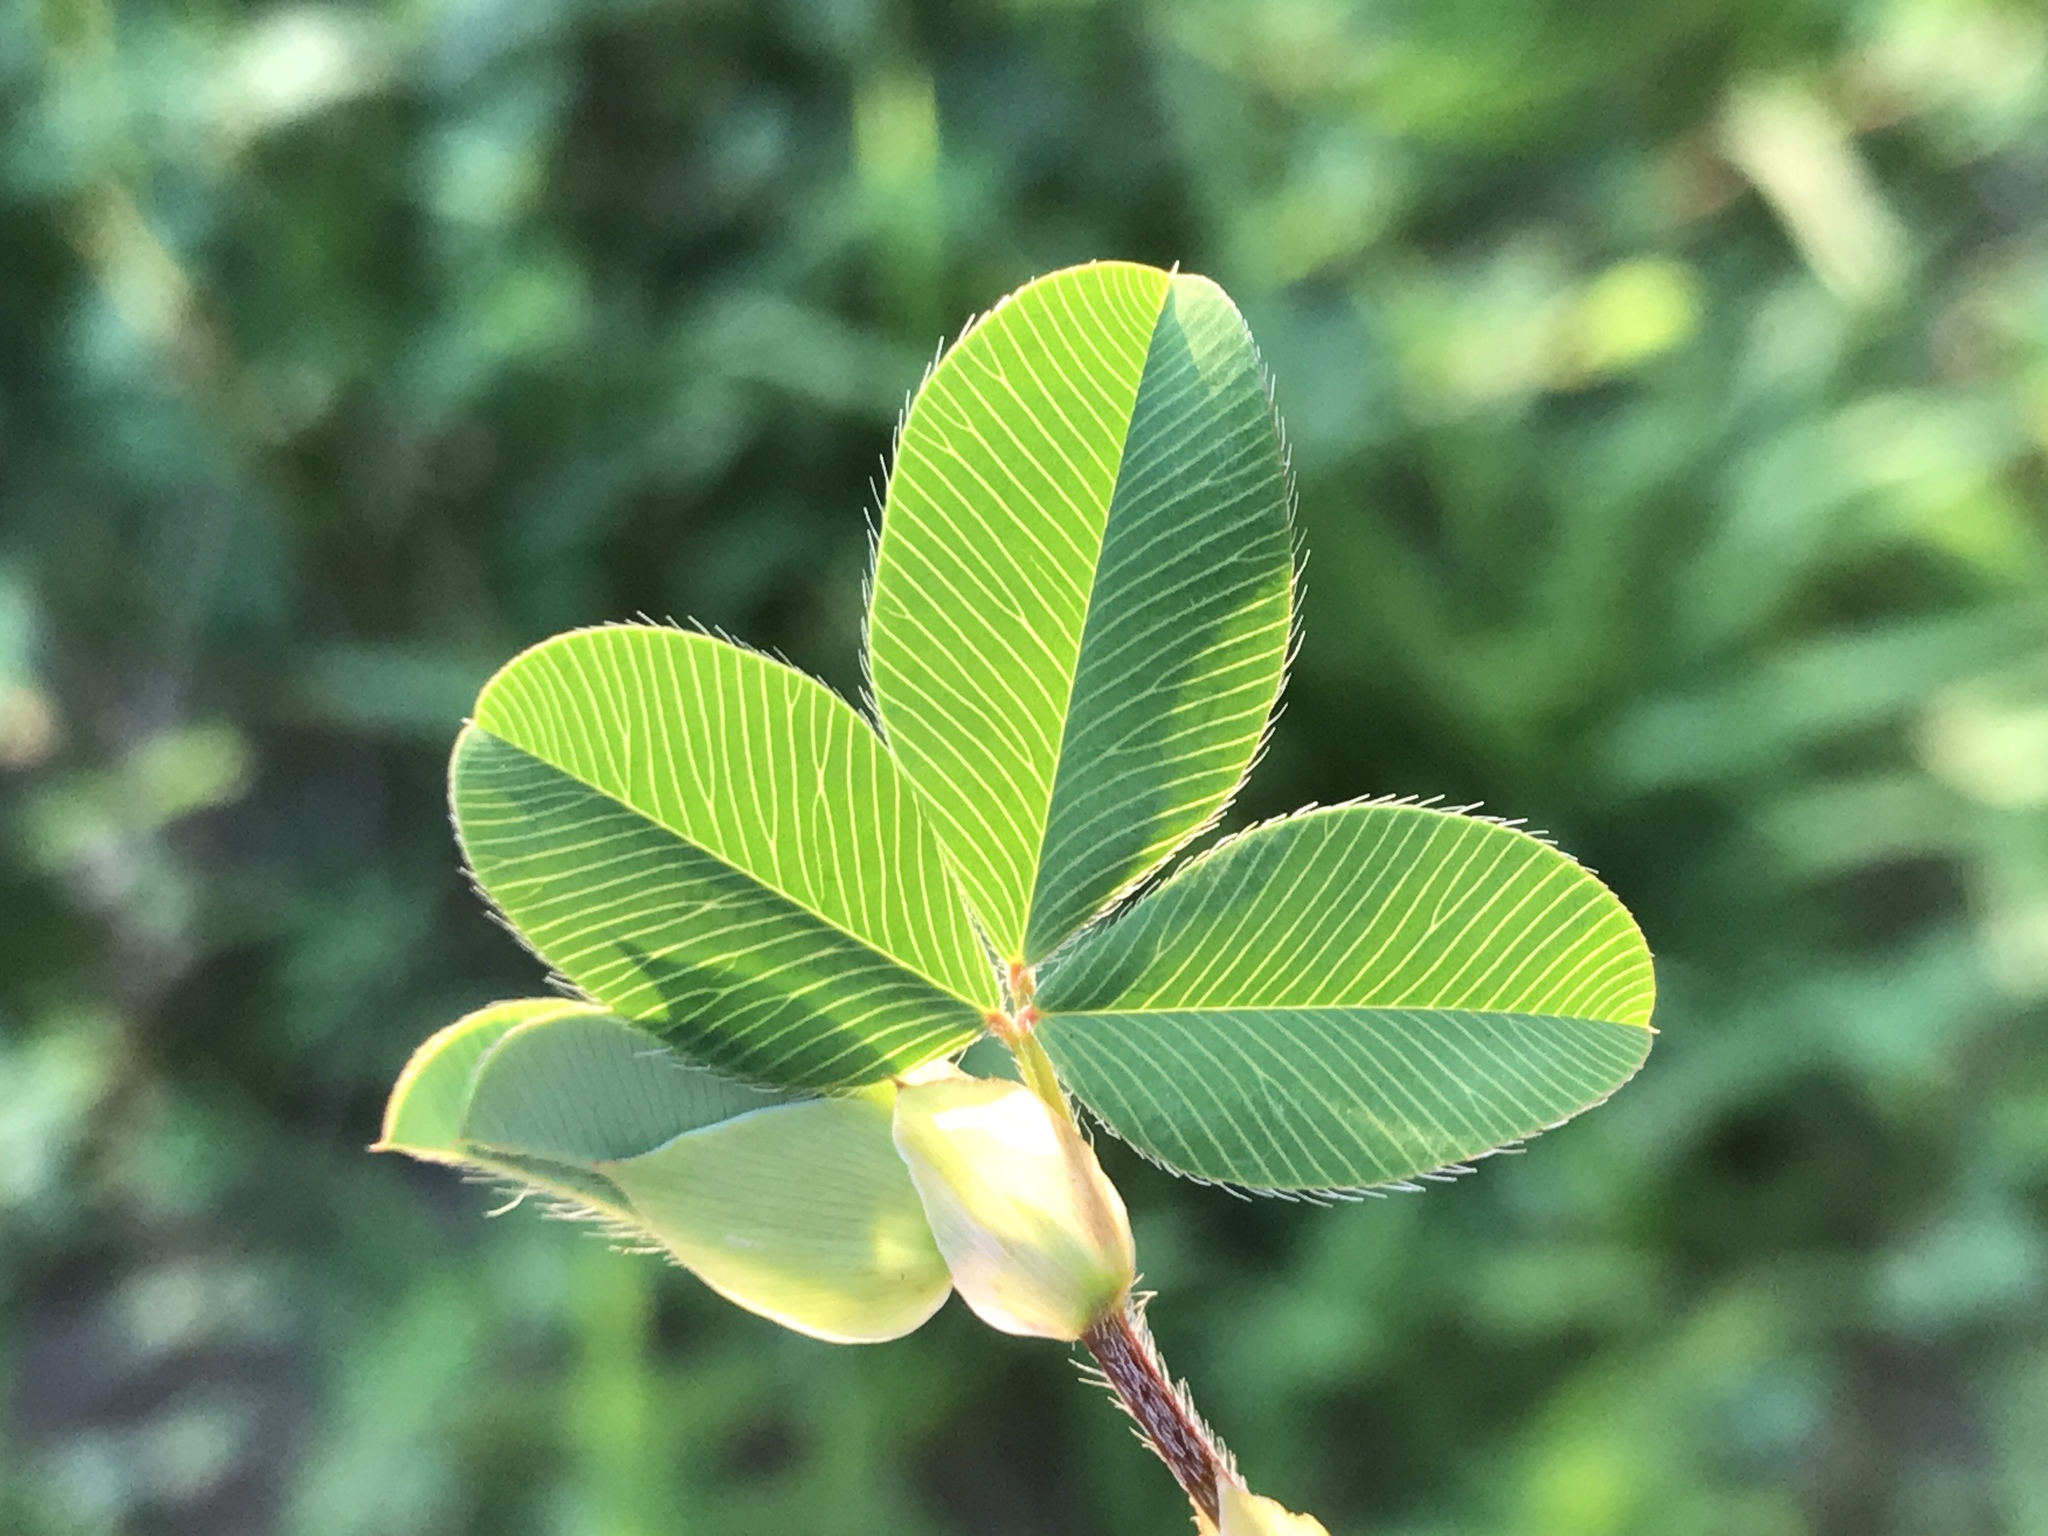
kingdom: Plantae
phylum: Tracheophyta
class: Magnoliopsida
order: Fabales
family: Fabaceae
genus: Kummerowia
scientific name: Kummerowia stipulacea
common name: Korean clover
